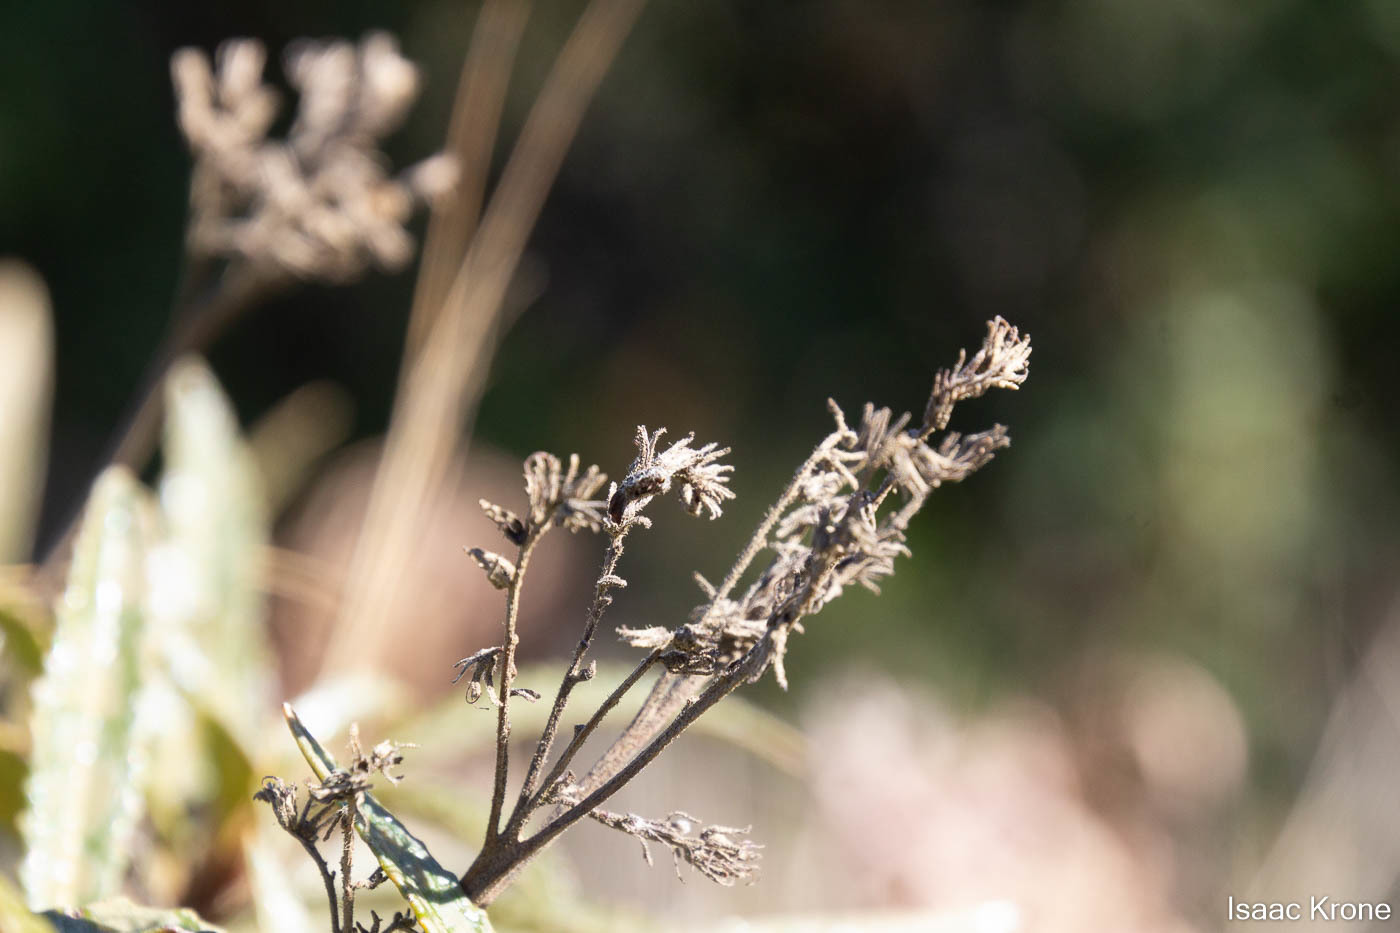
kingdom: Plantae
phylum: Tracheophyta
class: Magnoliopsida
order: Boraginales
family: Namaceae
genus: Eriodictyon
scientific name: Eriodictyon californicum
